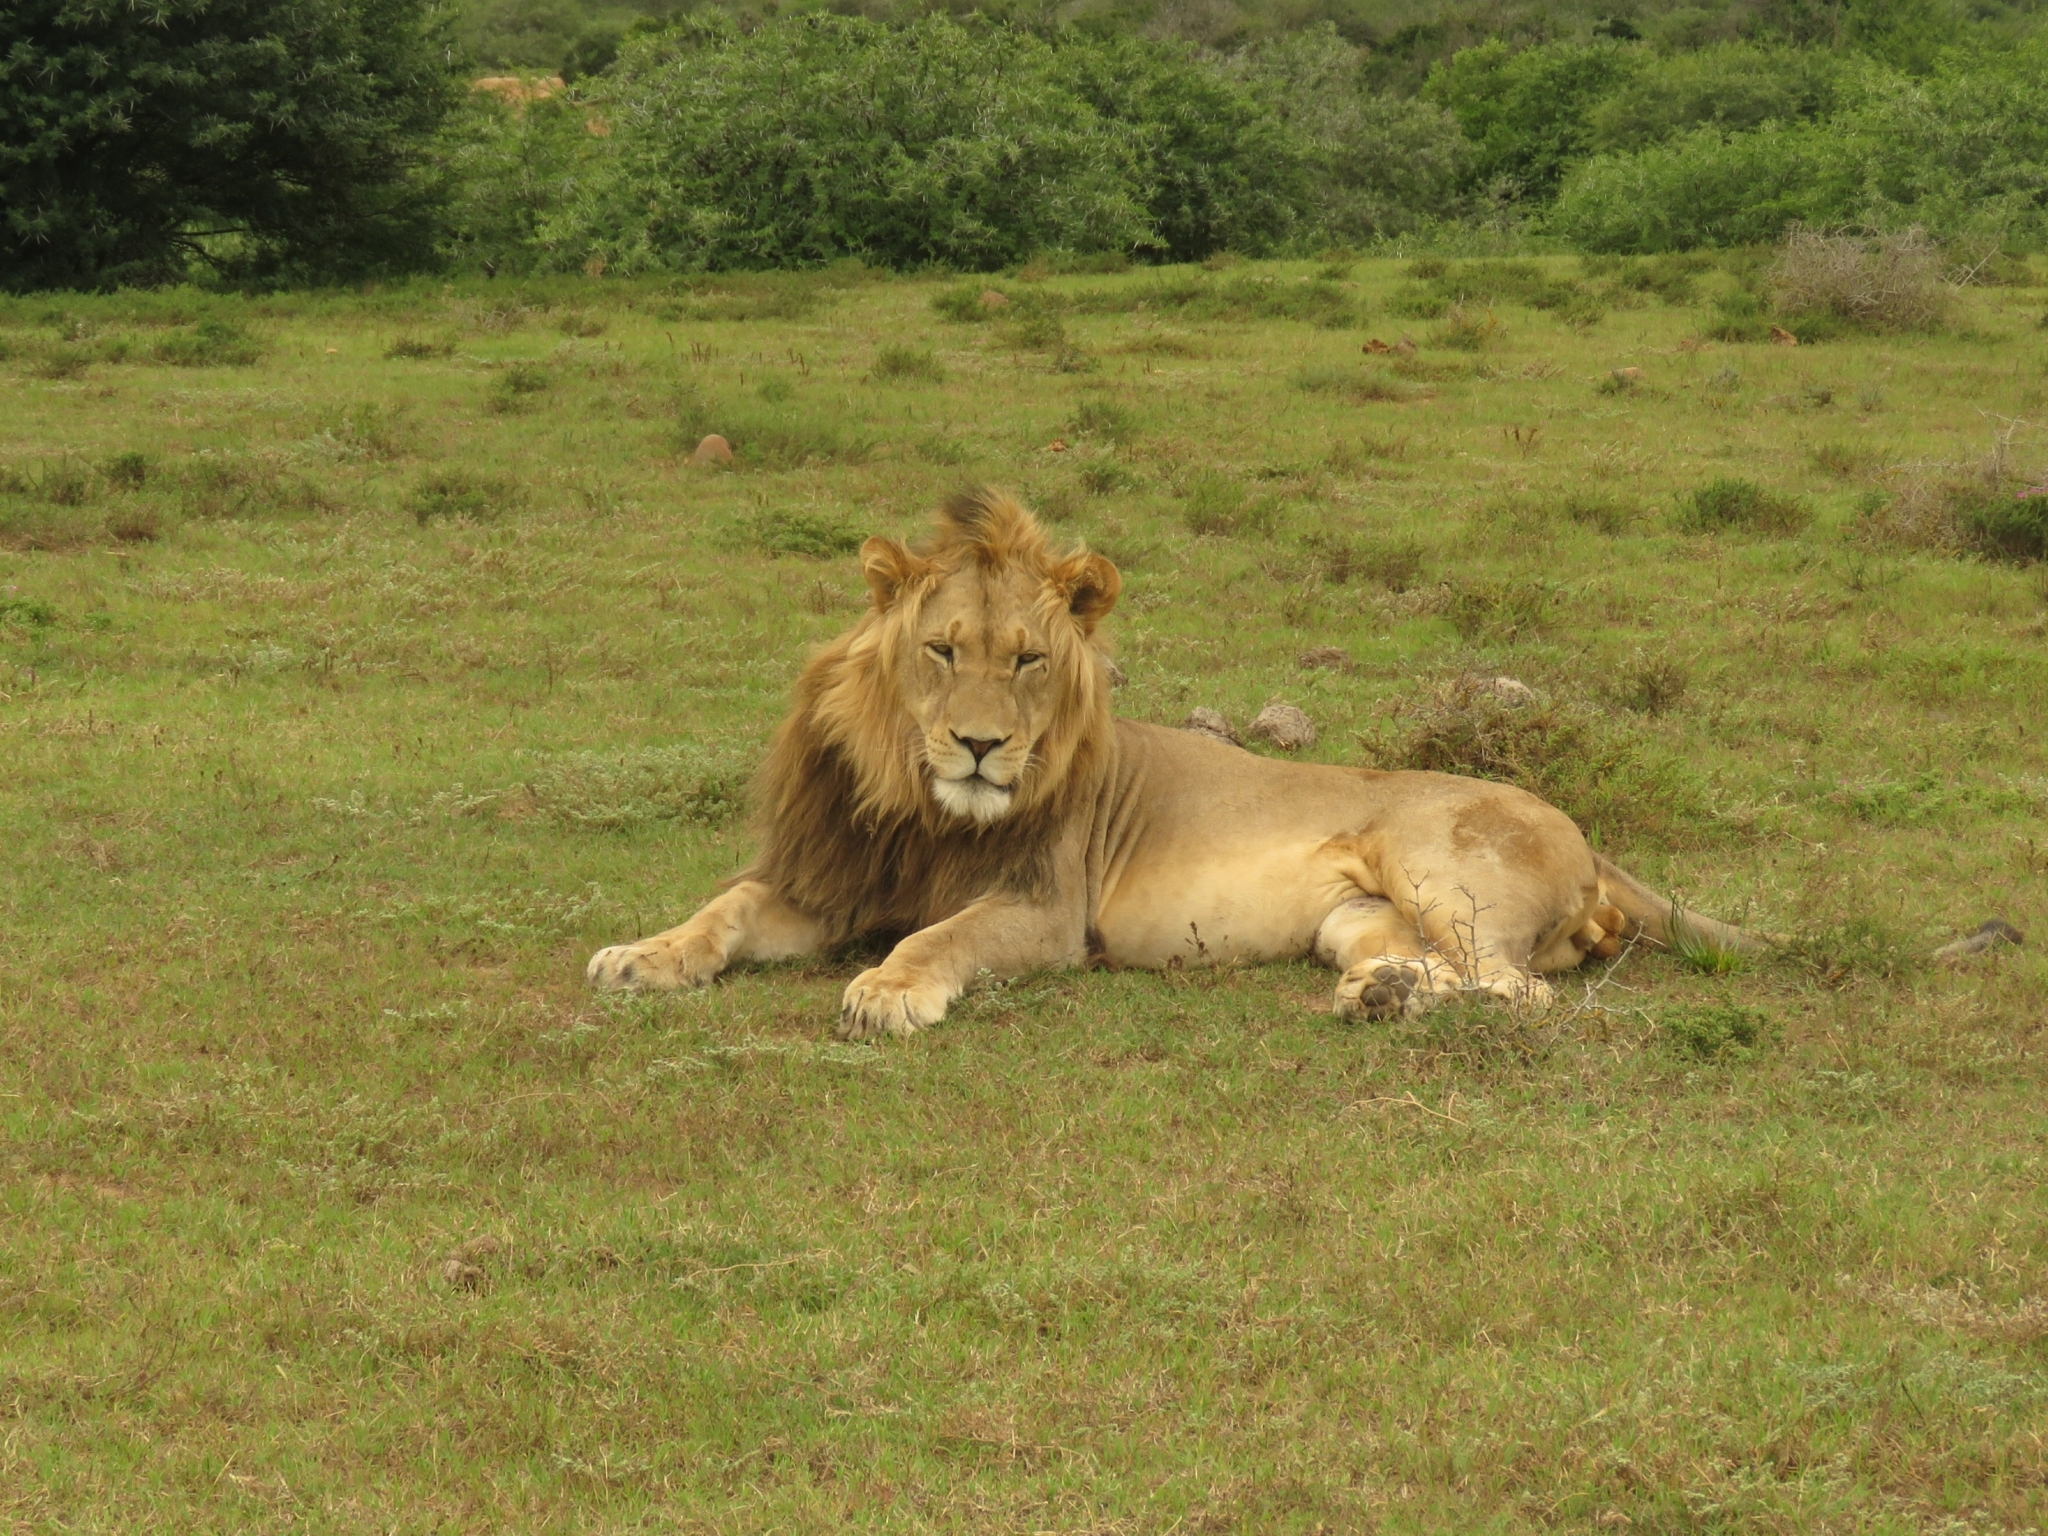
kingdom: Animalia
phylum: Chordata
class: Mammalia
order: Carnivora
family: Felidae
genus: Panthera
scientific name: Panthera leo
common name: Lion
